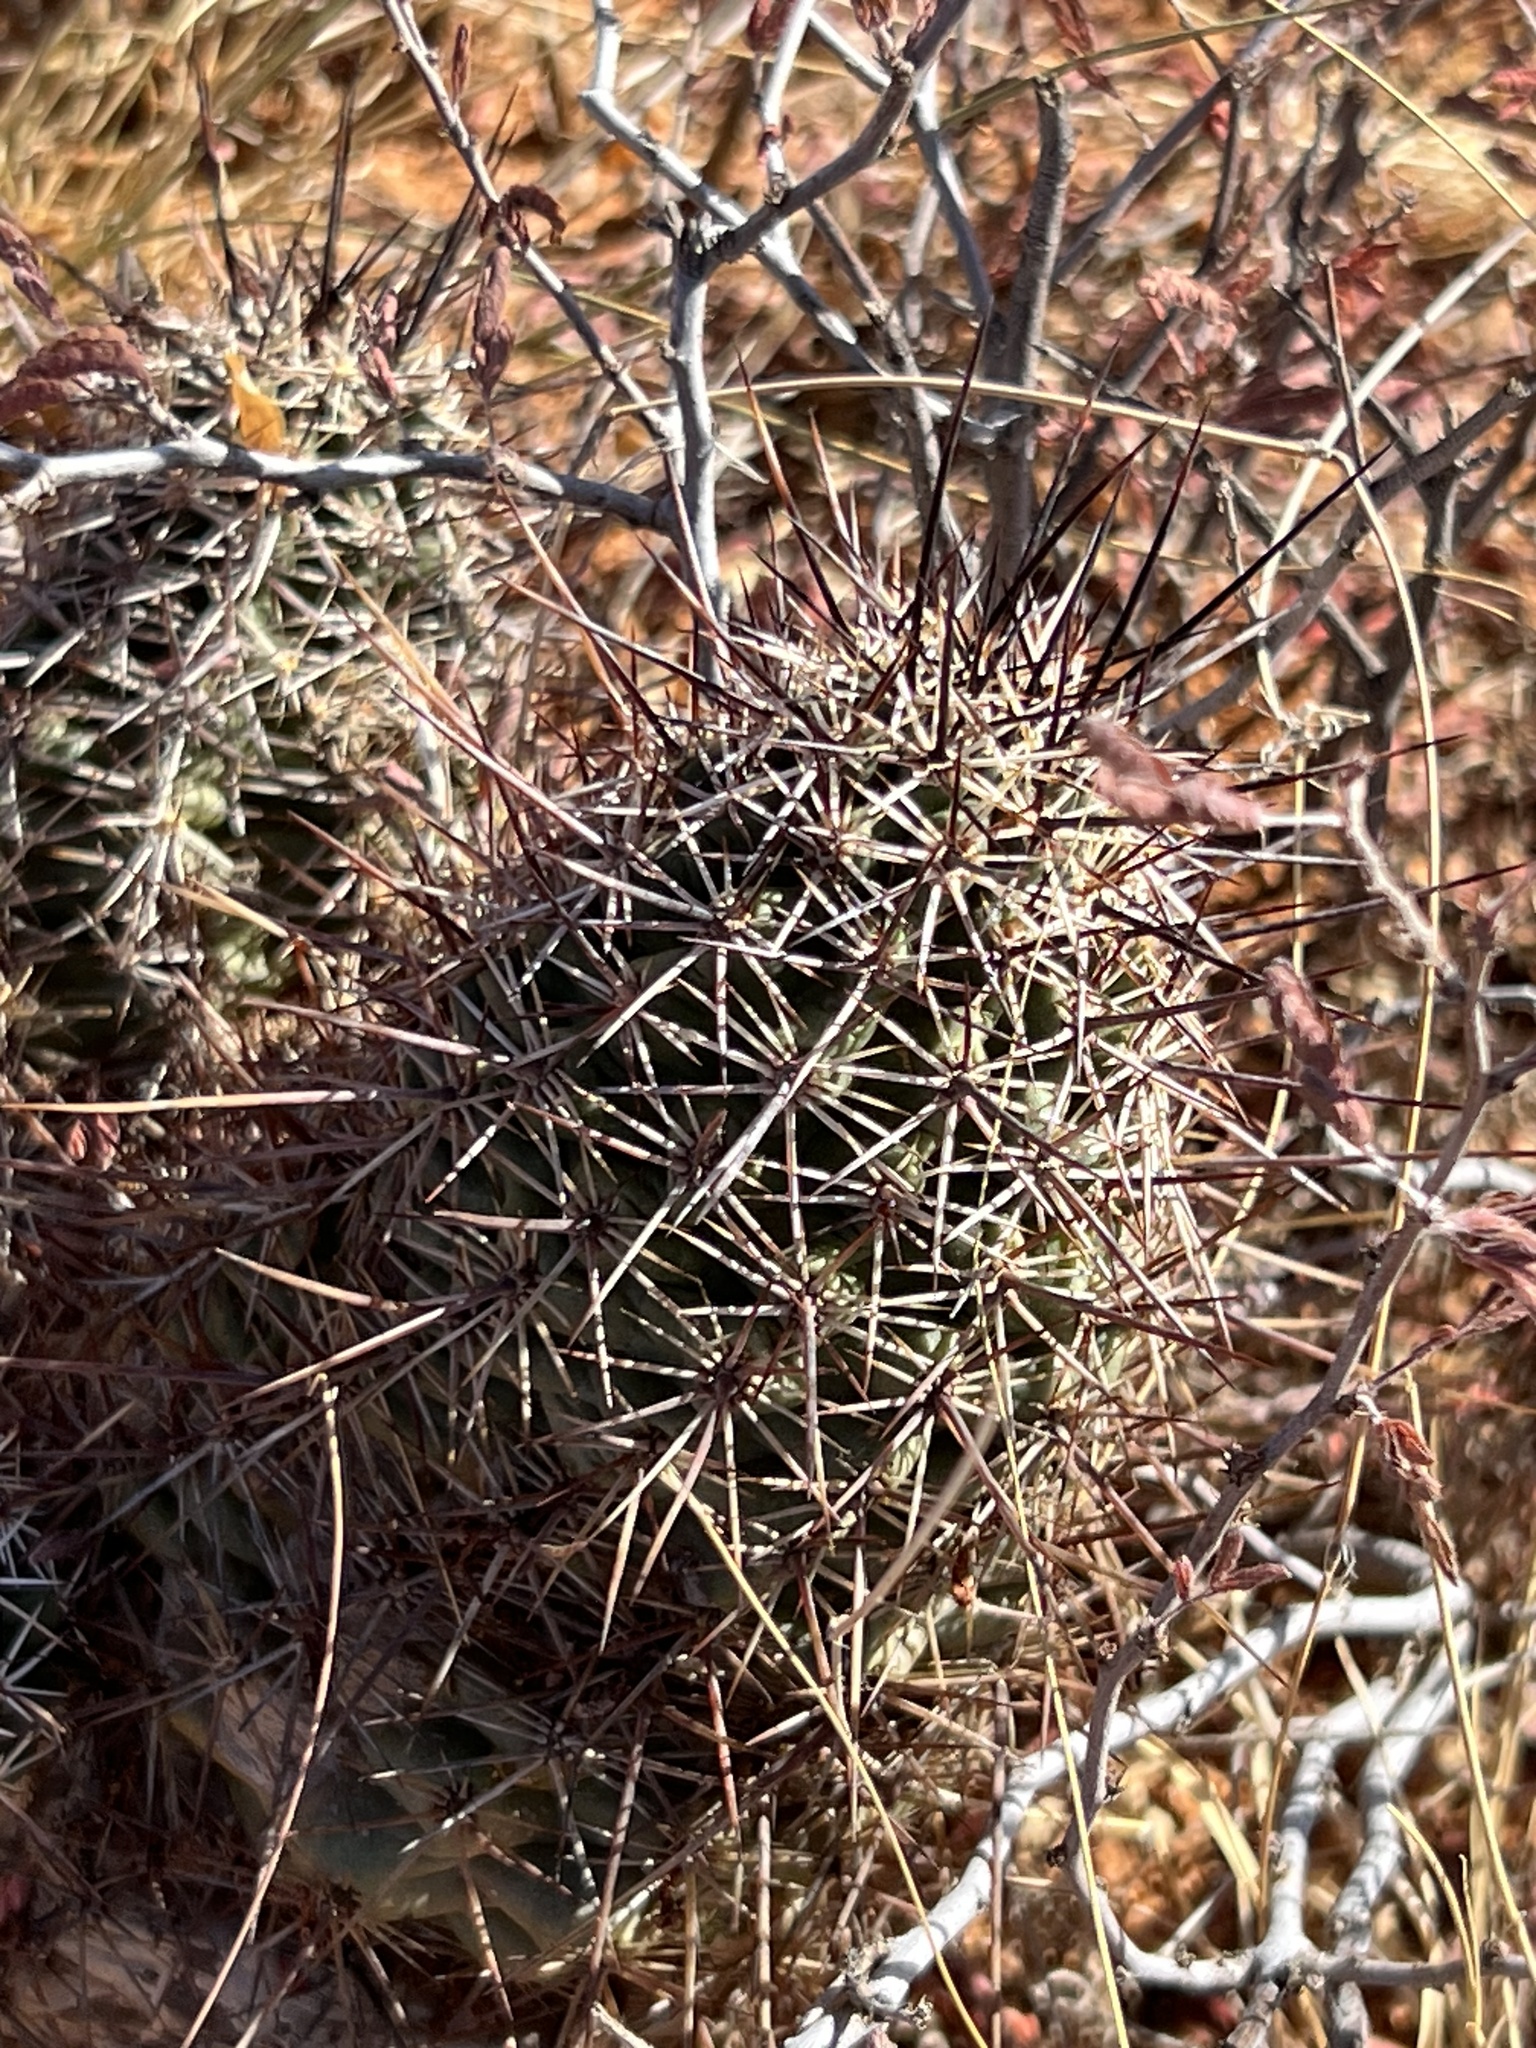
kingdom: Plantae
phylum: Tracheophyta
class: Magnoliopsida
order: Caryophyllales
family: Cactaceae
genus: Echinocereus
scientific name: Echinocereus fasciculatus
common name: Bundle hedgehog
